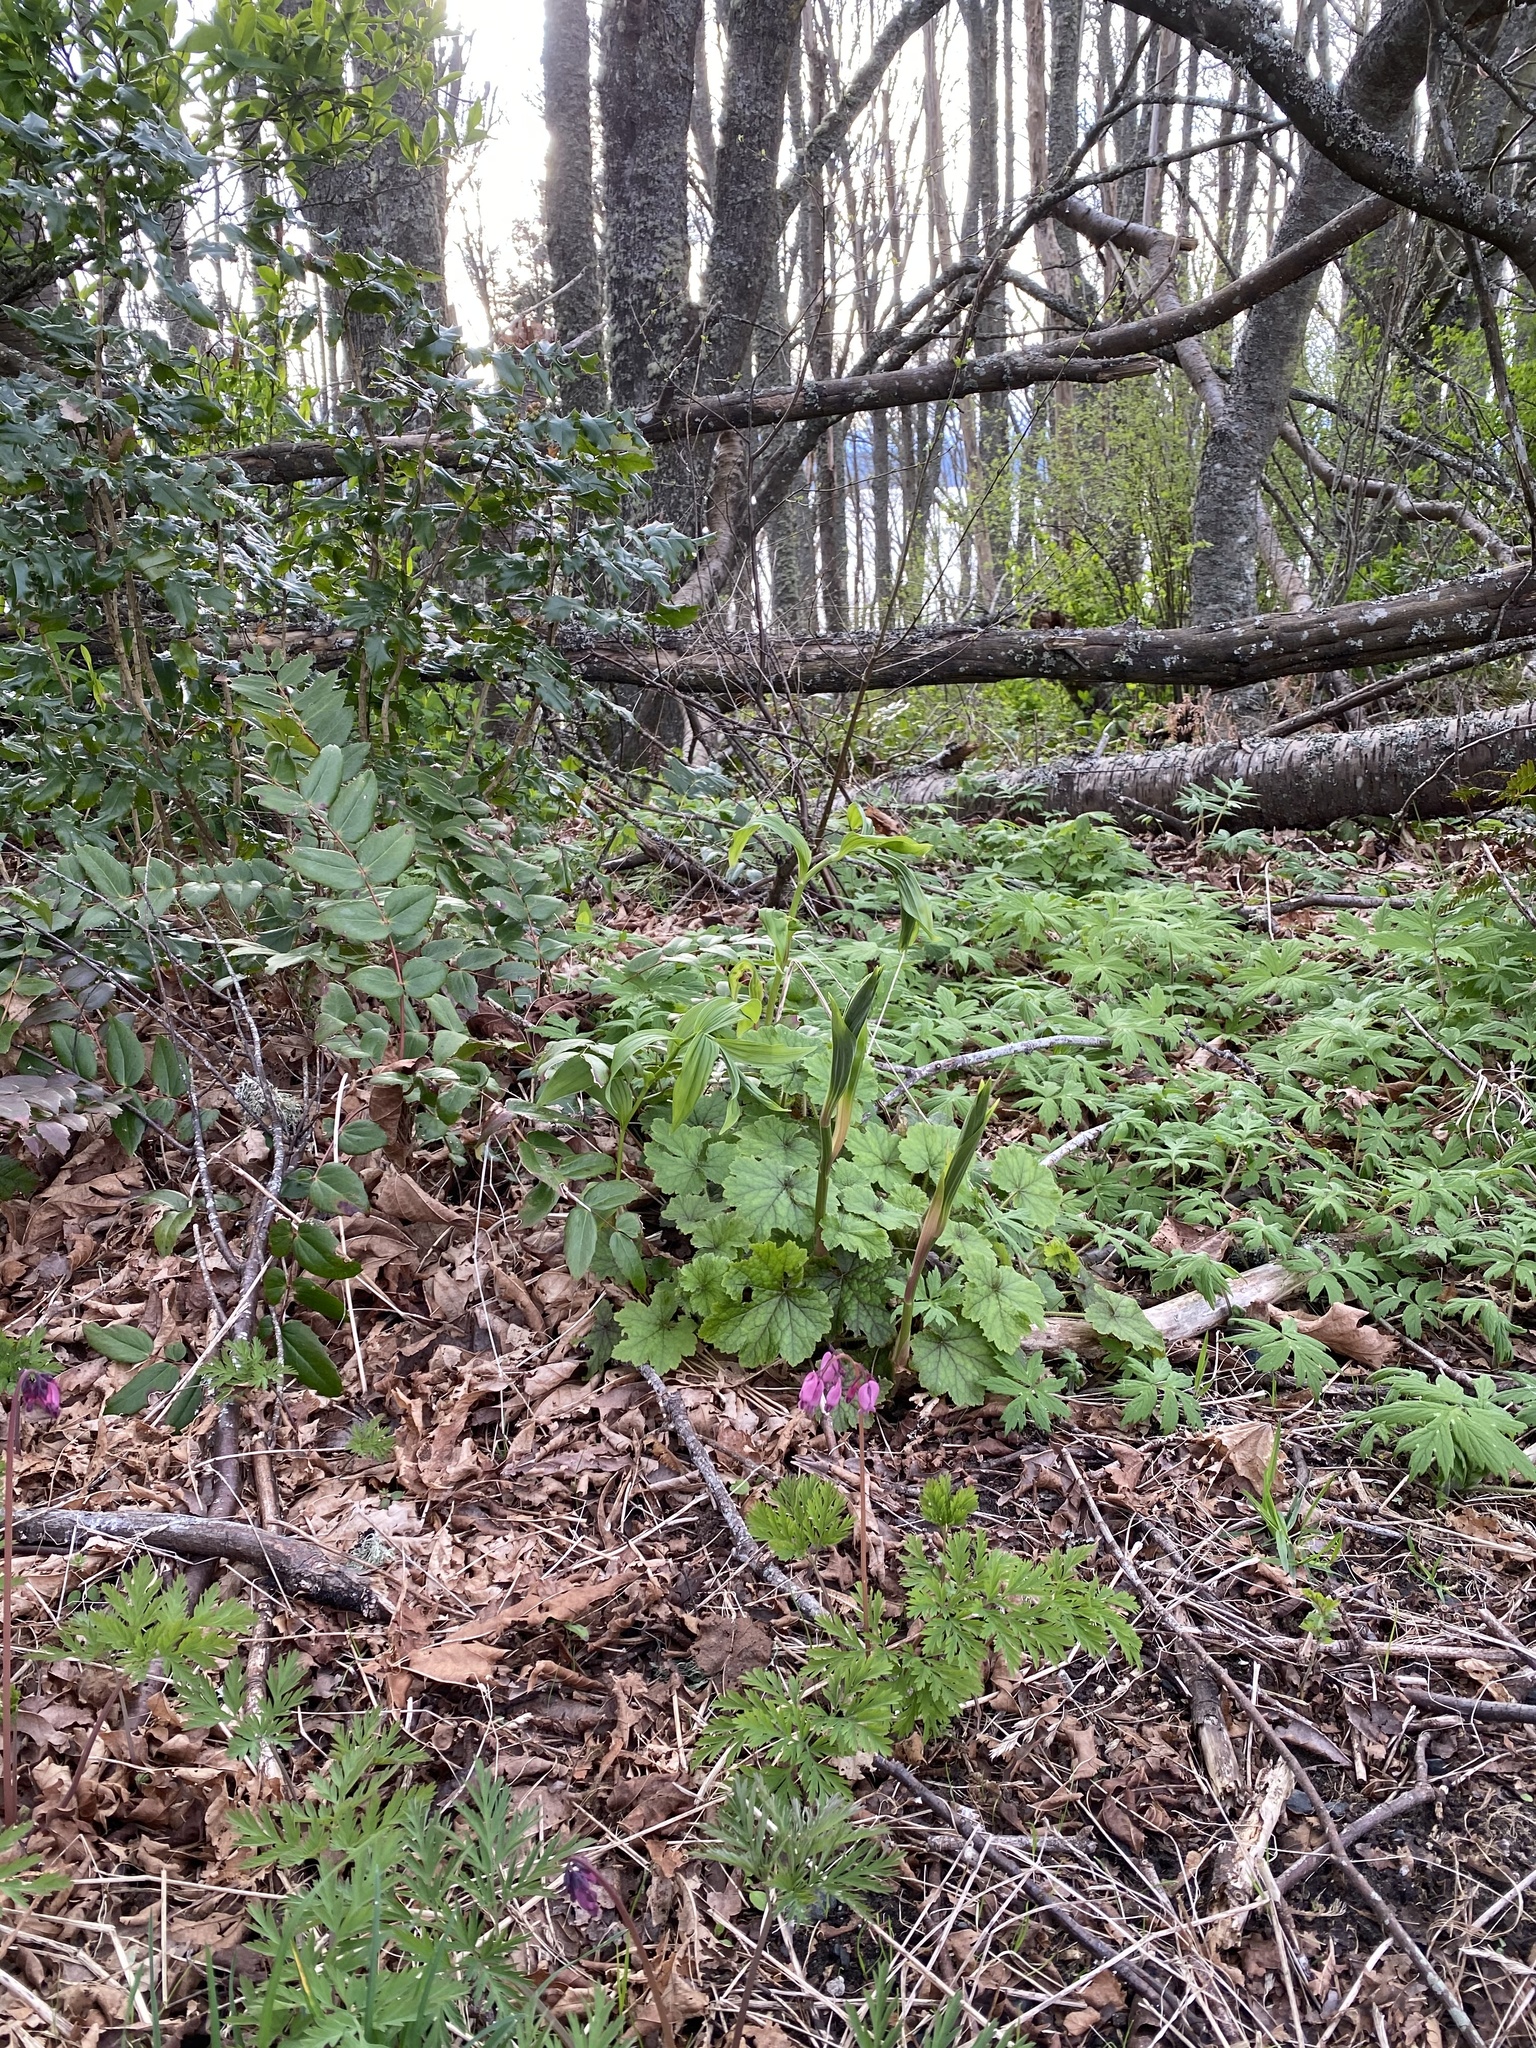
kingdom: Plantae
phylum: Tracheophyta
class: Magnoliopsida
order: Ranunculales
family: Papaveraceae
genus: Dicentra
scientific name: Dicentra formosa
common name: Bleeding-heart
